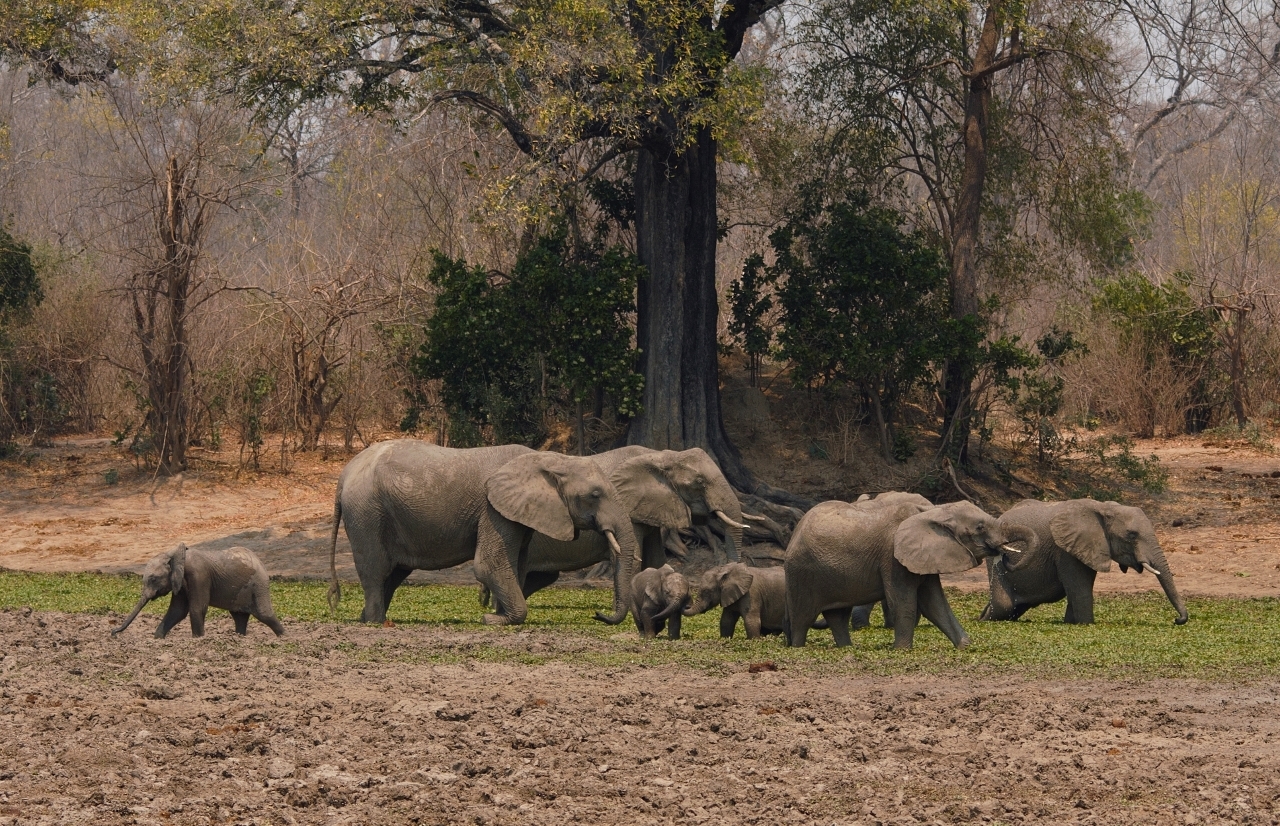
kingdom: Animalia
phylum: Chordata
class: Mammalia
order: Proboscidea
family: Elephantidae
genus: Loxodonta
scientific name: Loxodonta africana
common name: African elephant
